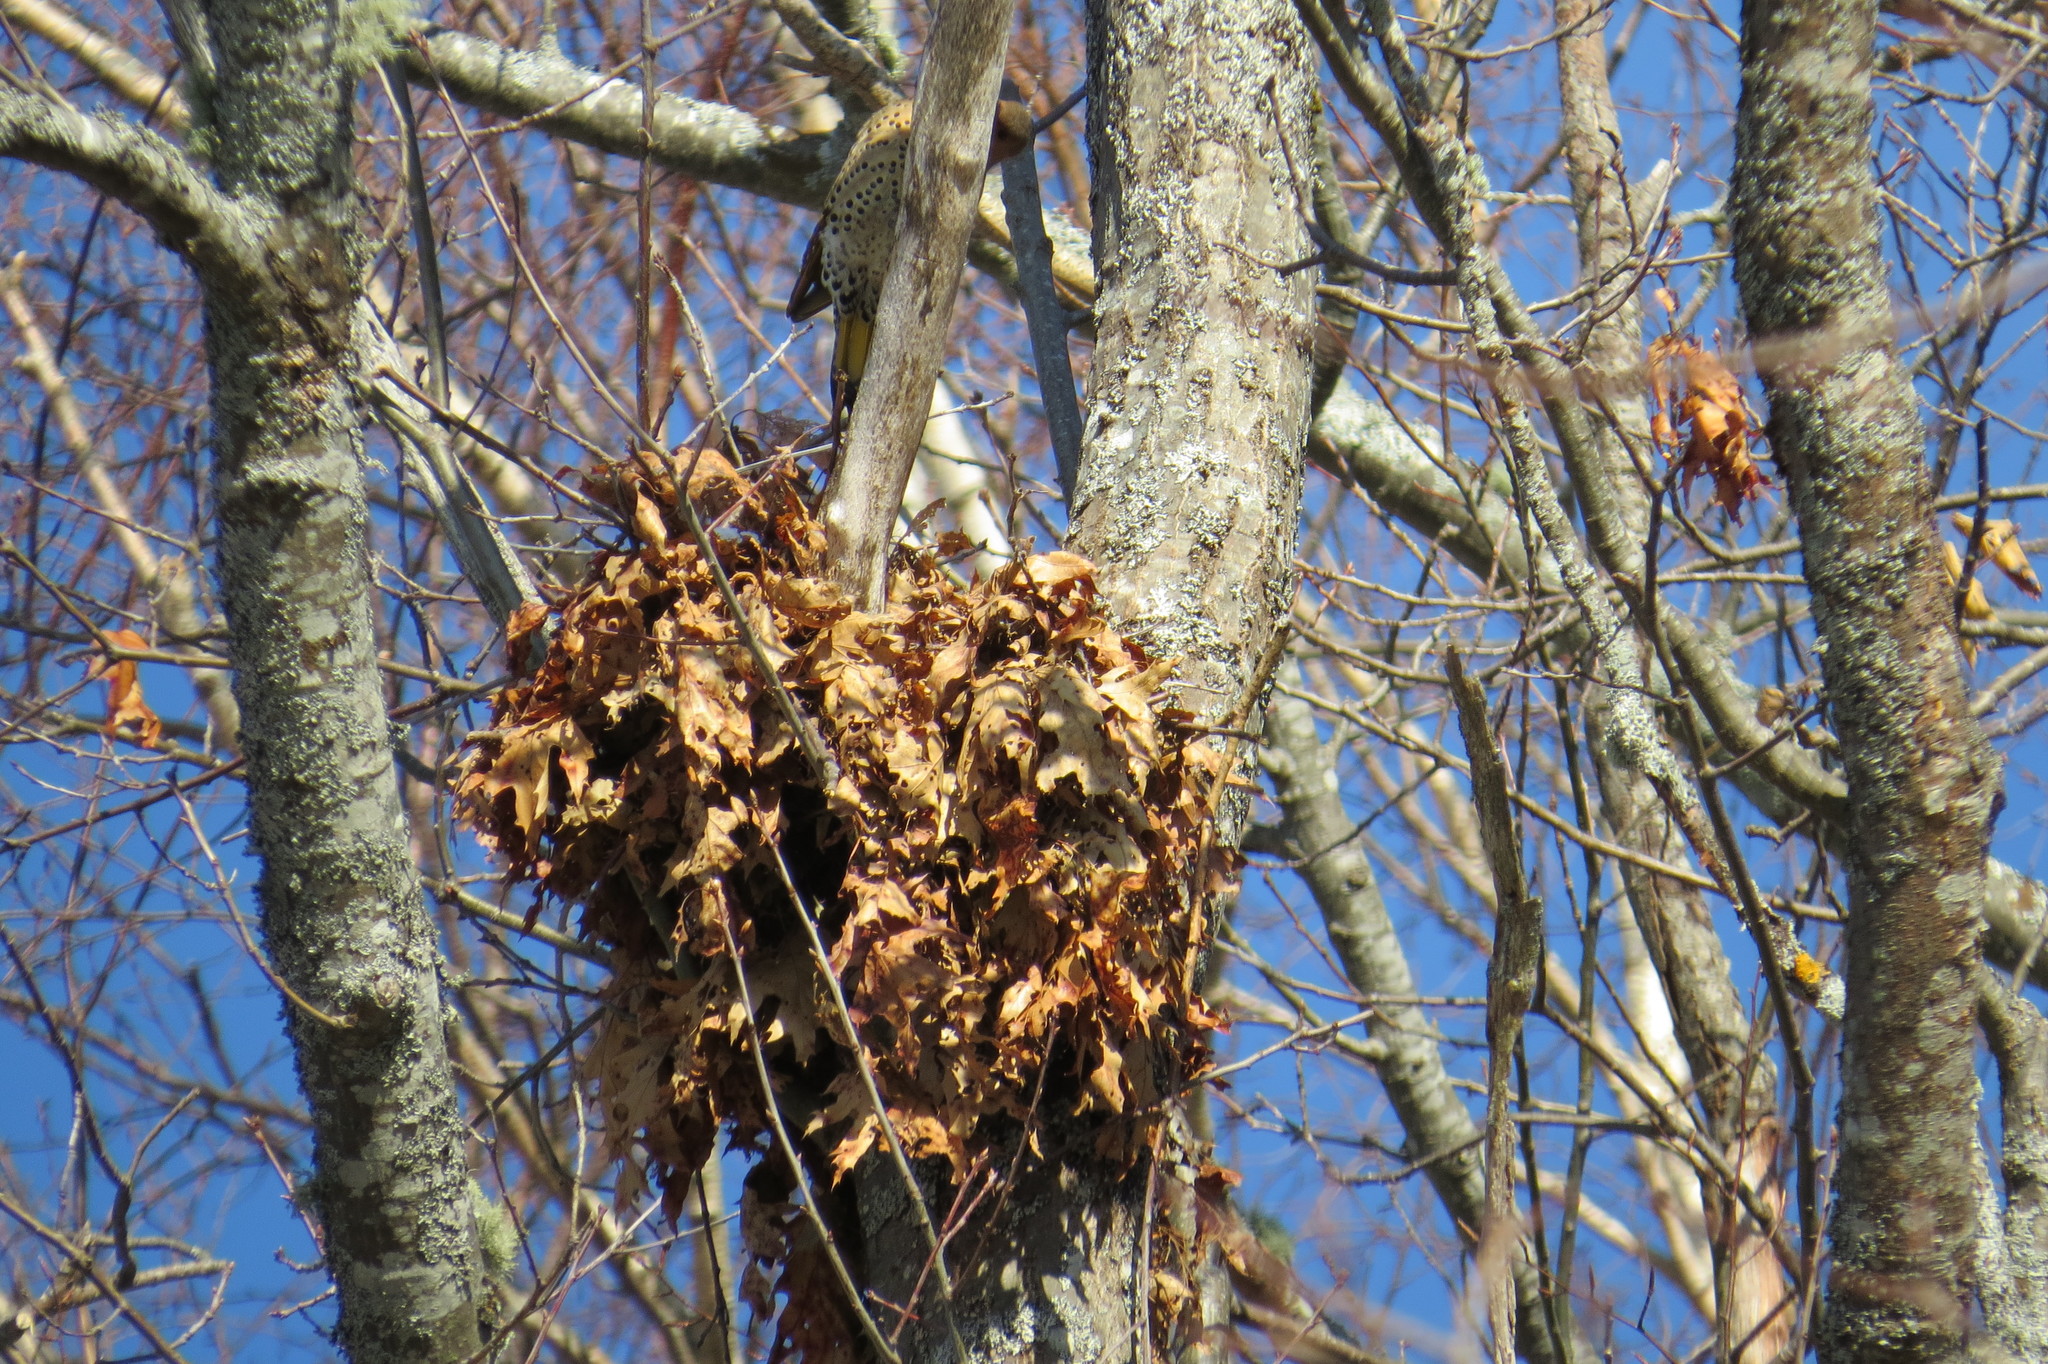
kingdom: Animalia
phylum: Chordata
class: Mammalia
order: Rodentia
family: Sciuridae
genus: Sciurus
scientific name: Sciurus carolinensis
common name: Eastern gray squirrel
